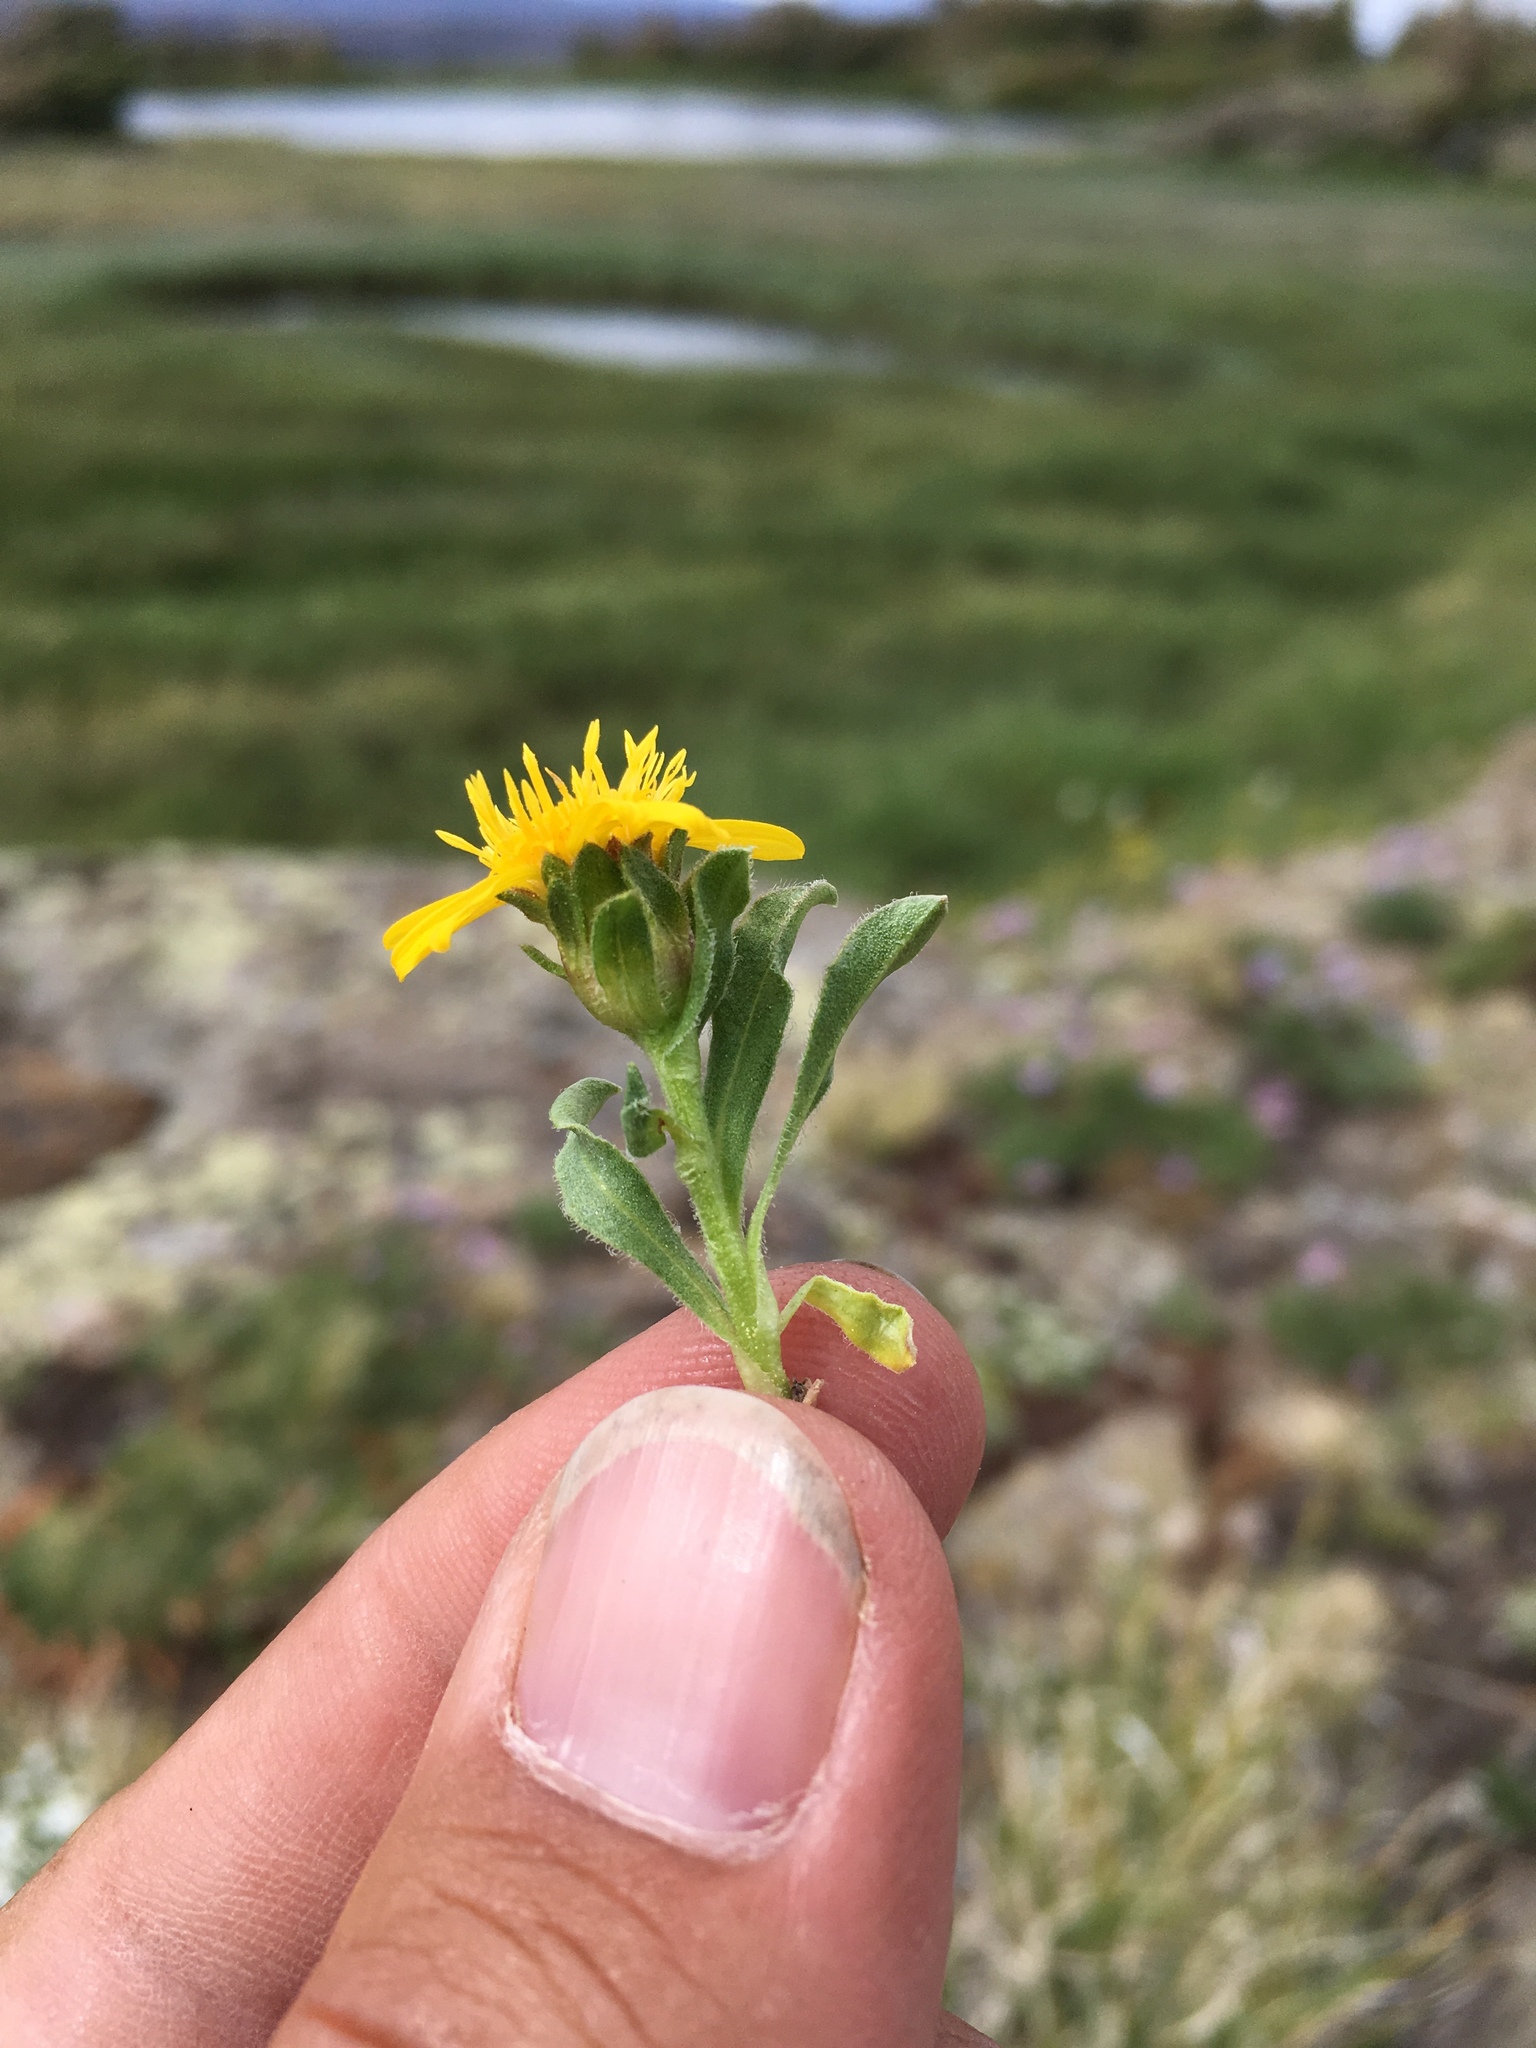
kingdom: Plantae
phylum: Tracheophyta
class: Magnoliopsida
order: Asterales
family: Asteraceae
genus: Tonestus
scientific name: Tonestus pygmaeus
